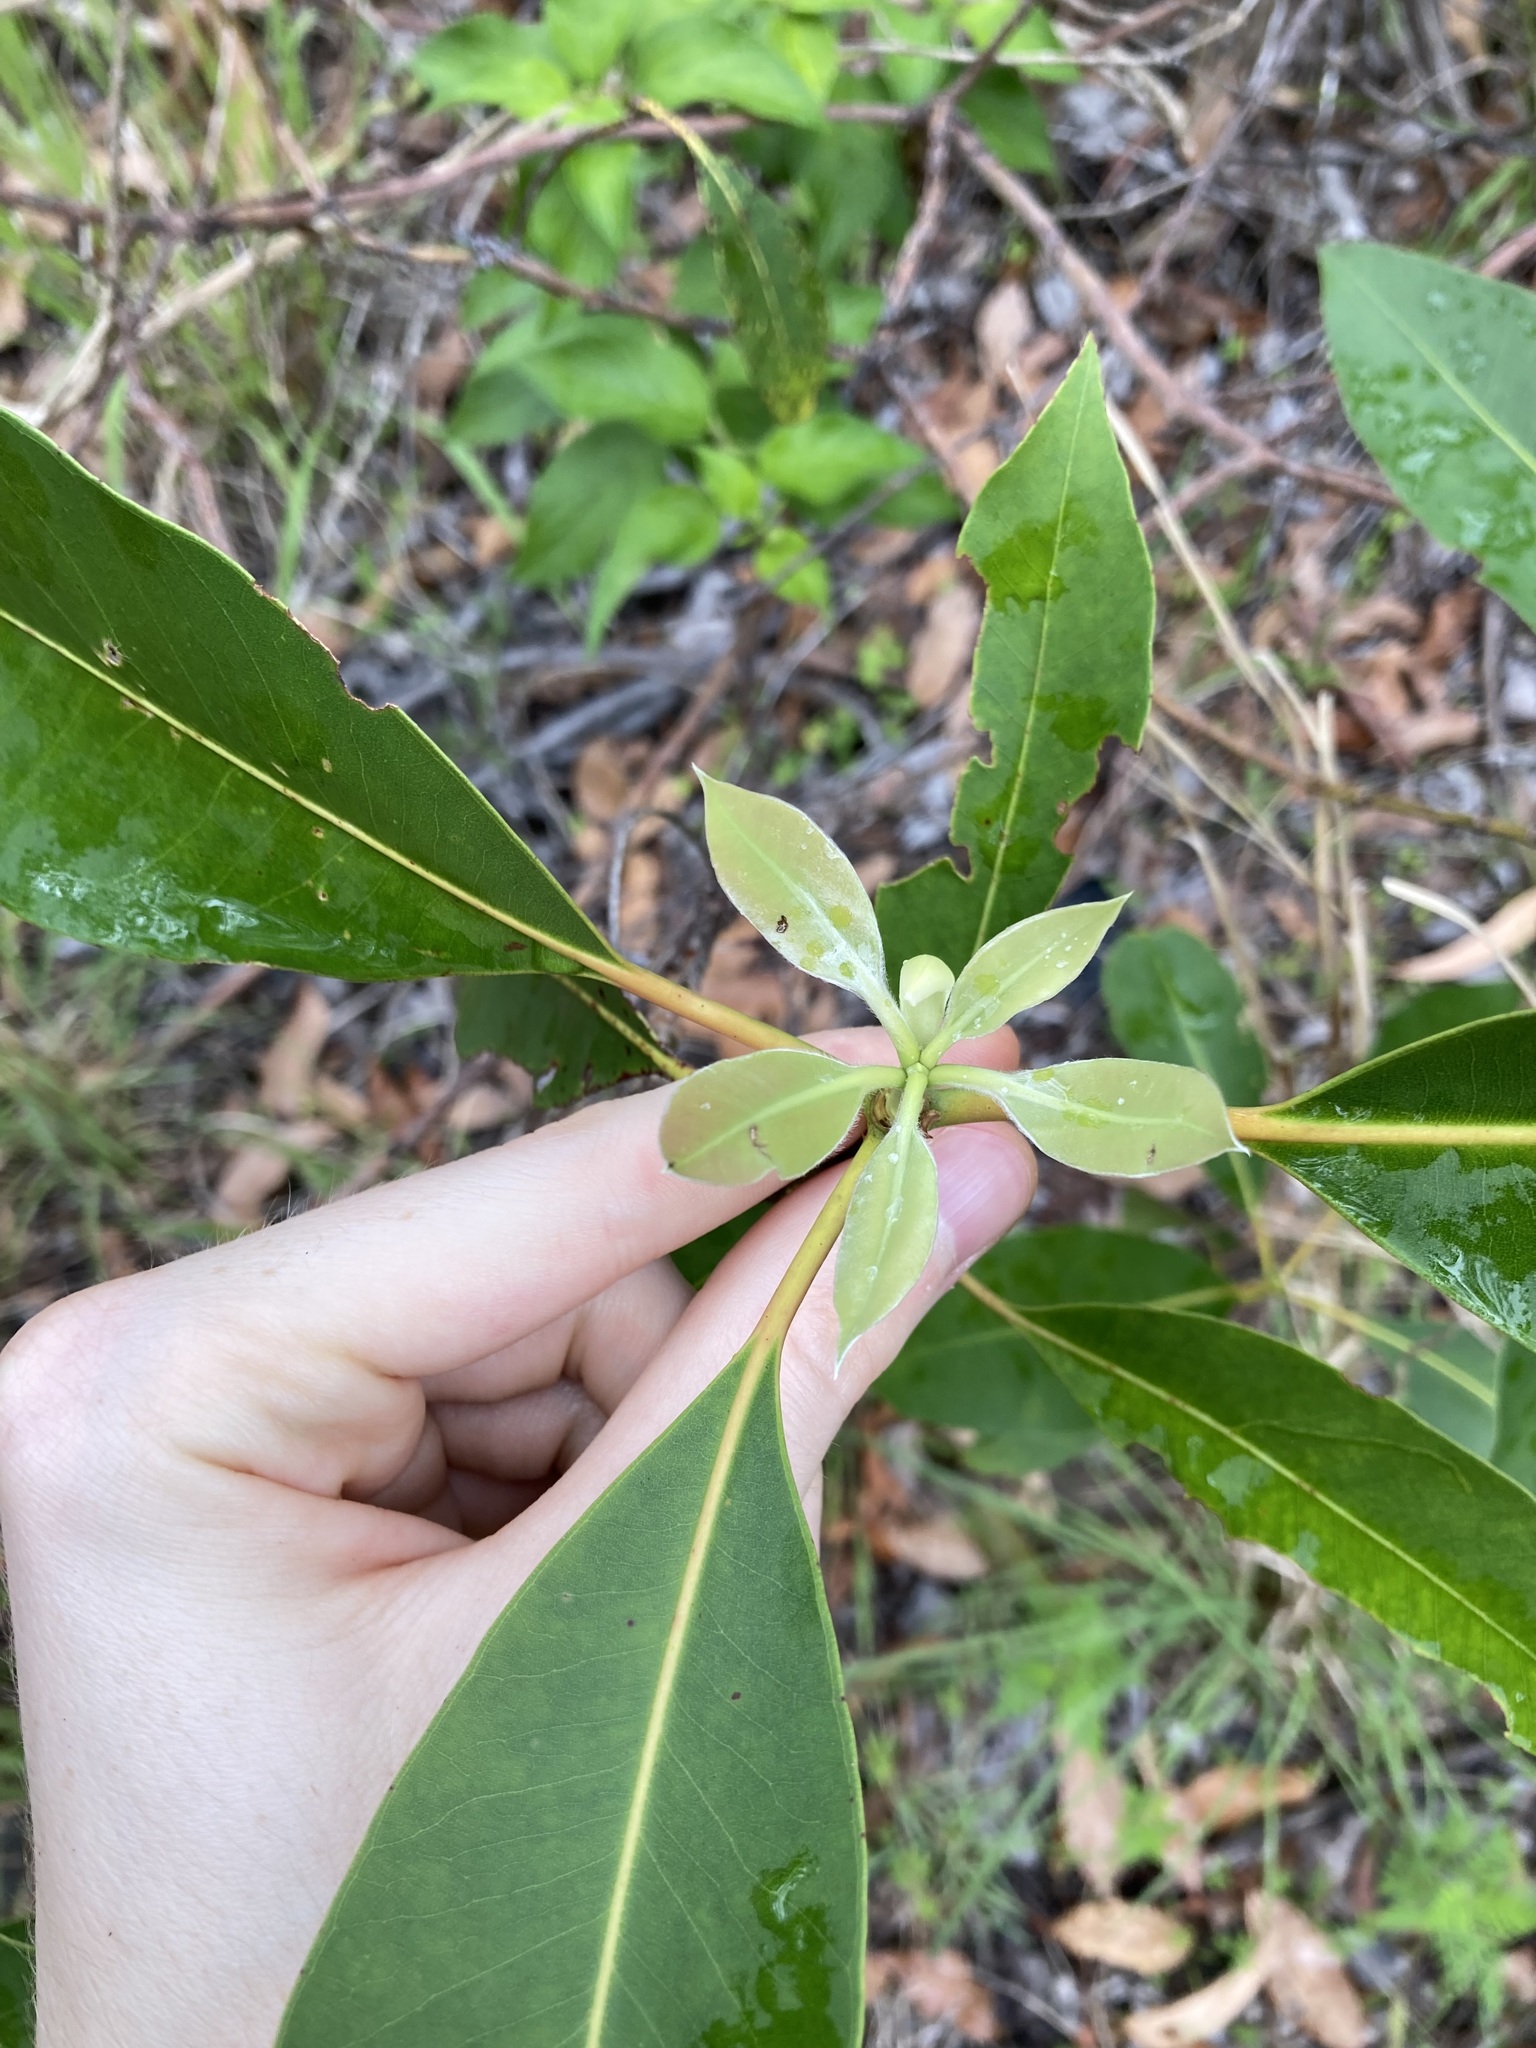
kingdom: Plantae
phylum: Tracheophyta
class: Magnoliopsida
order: Myrtales
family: Myrtaceae
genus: Lophostemon
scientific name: Lophostemon confertus
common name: Brisbane box
